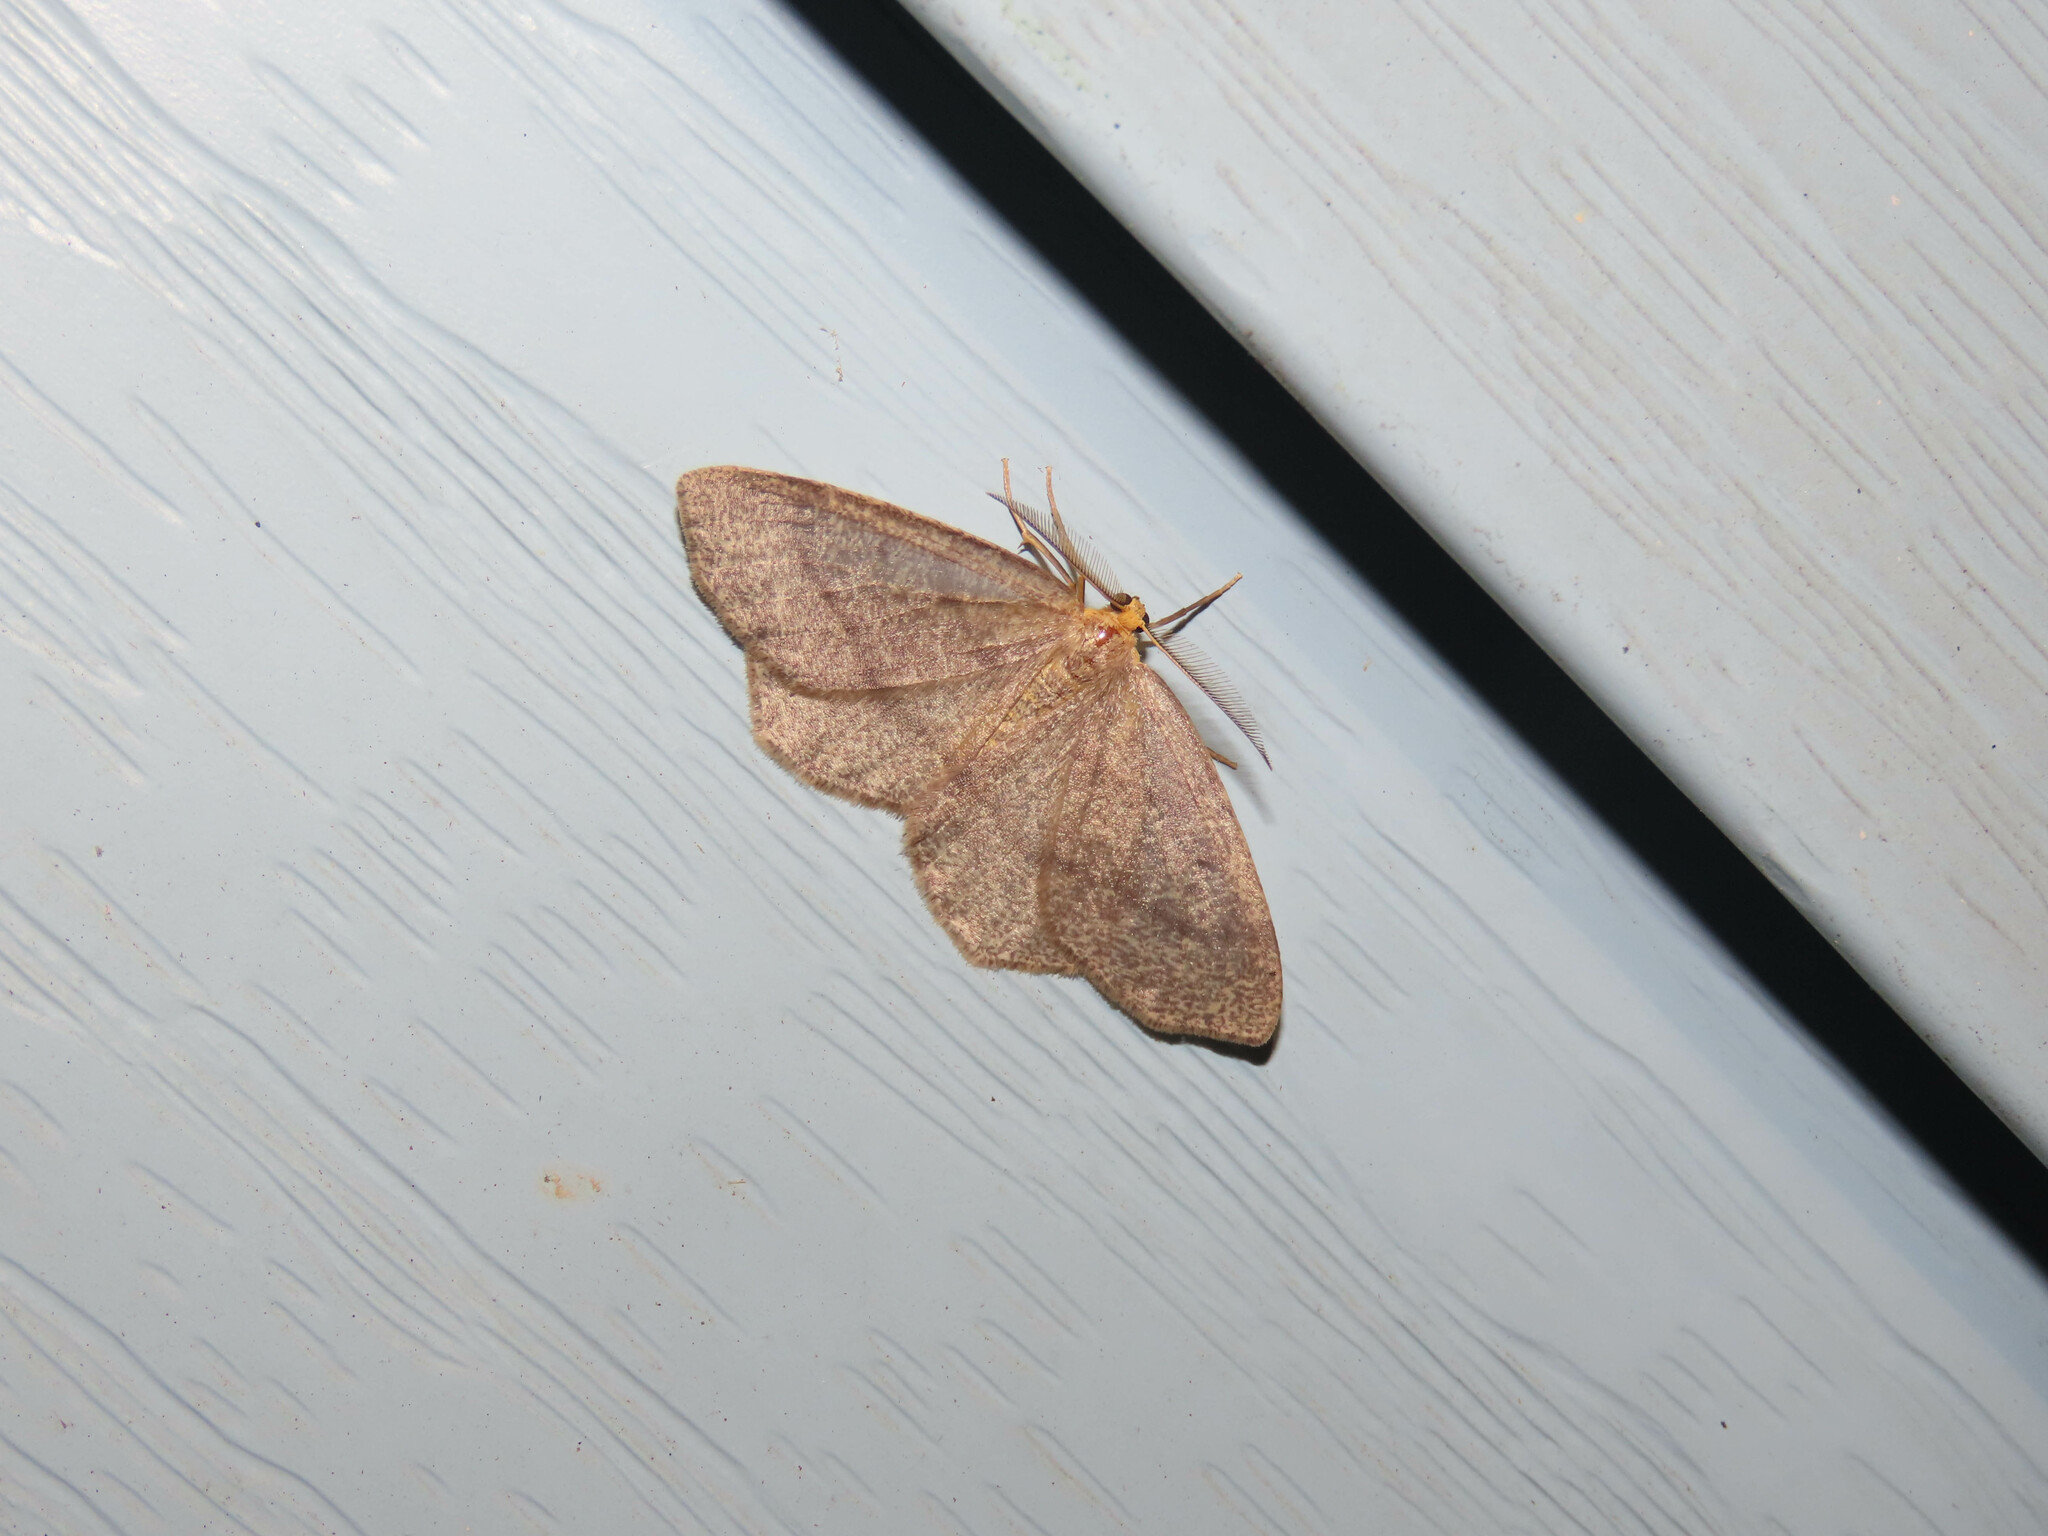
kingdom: Animalia
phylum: Arthropoda
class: Insecta
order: Lepidoptera
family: Geometridae
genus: Lambdina
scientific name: Lambdina fervidaria
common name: Curve-lined looper moth
